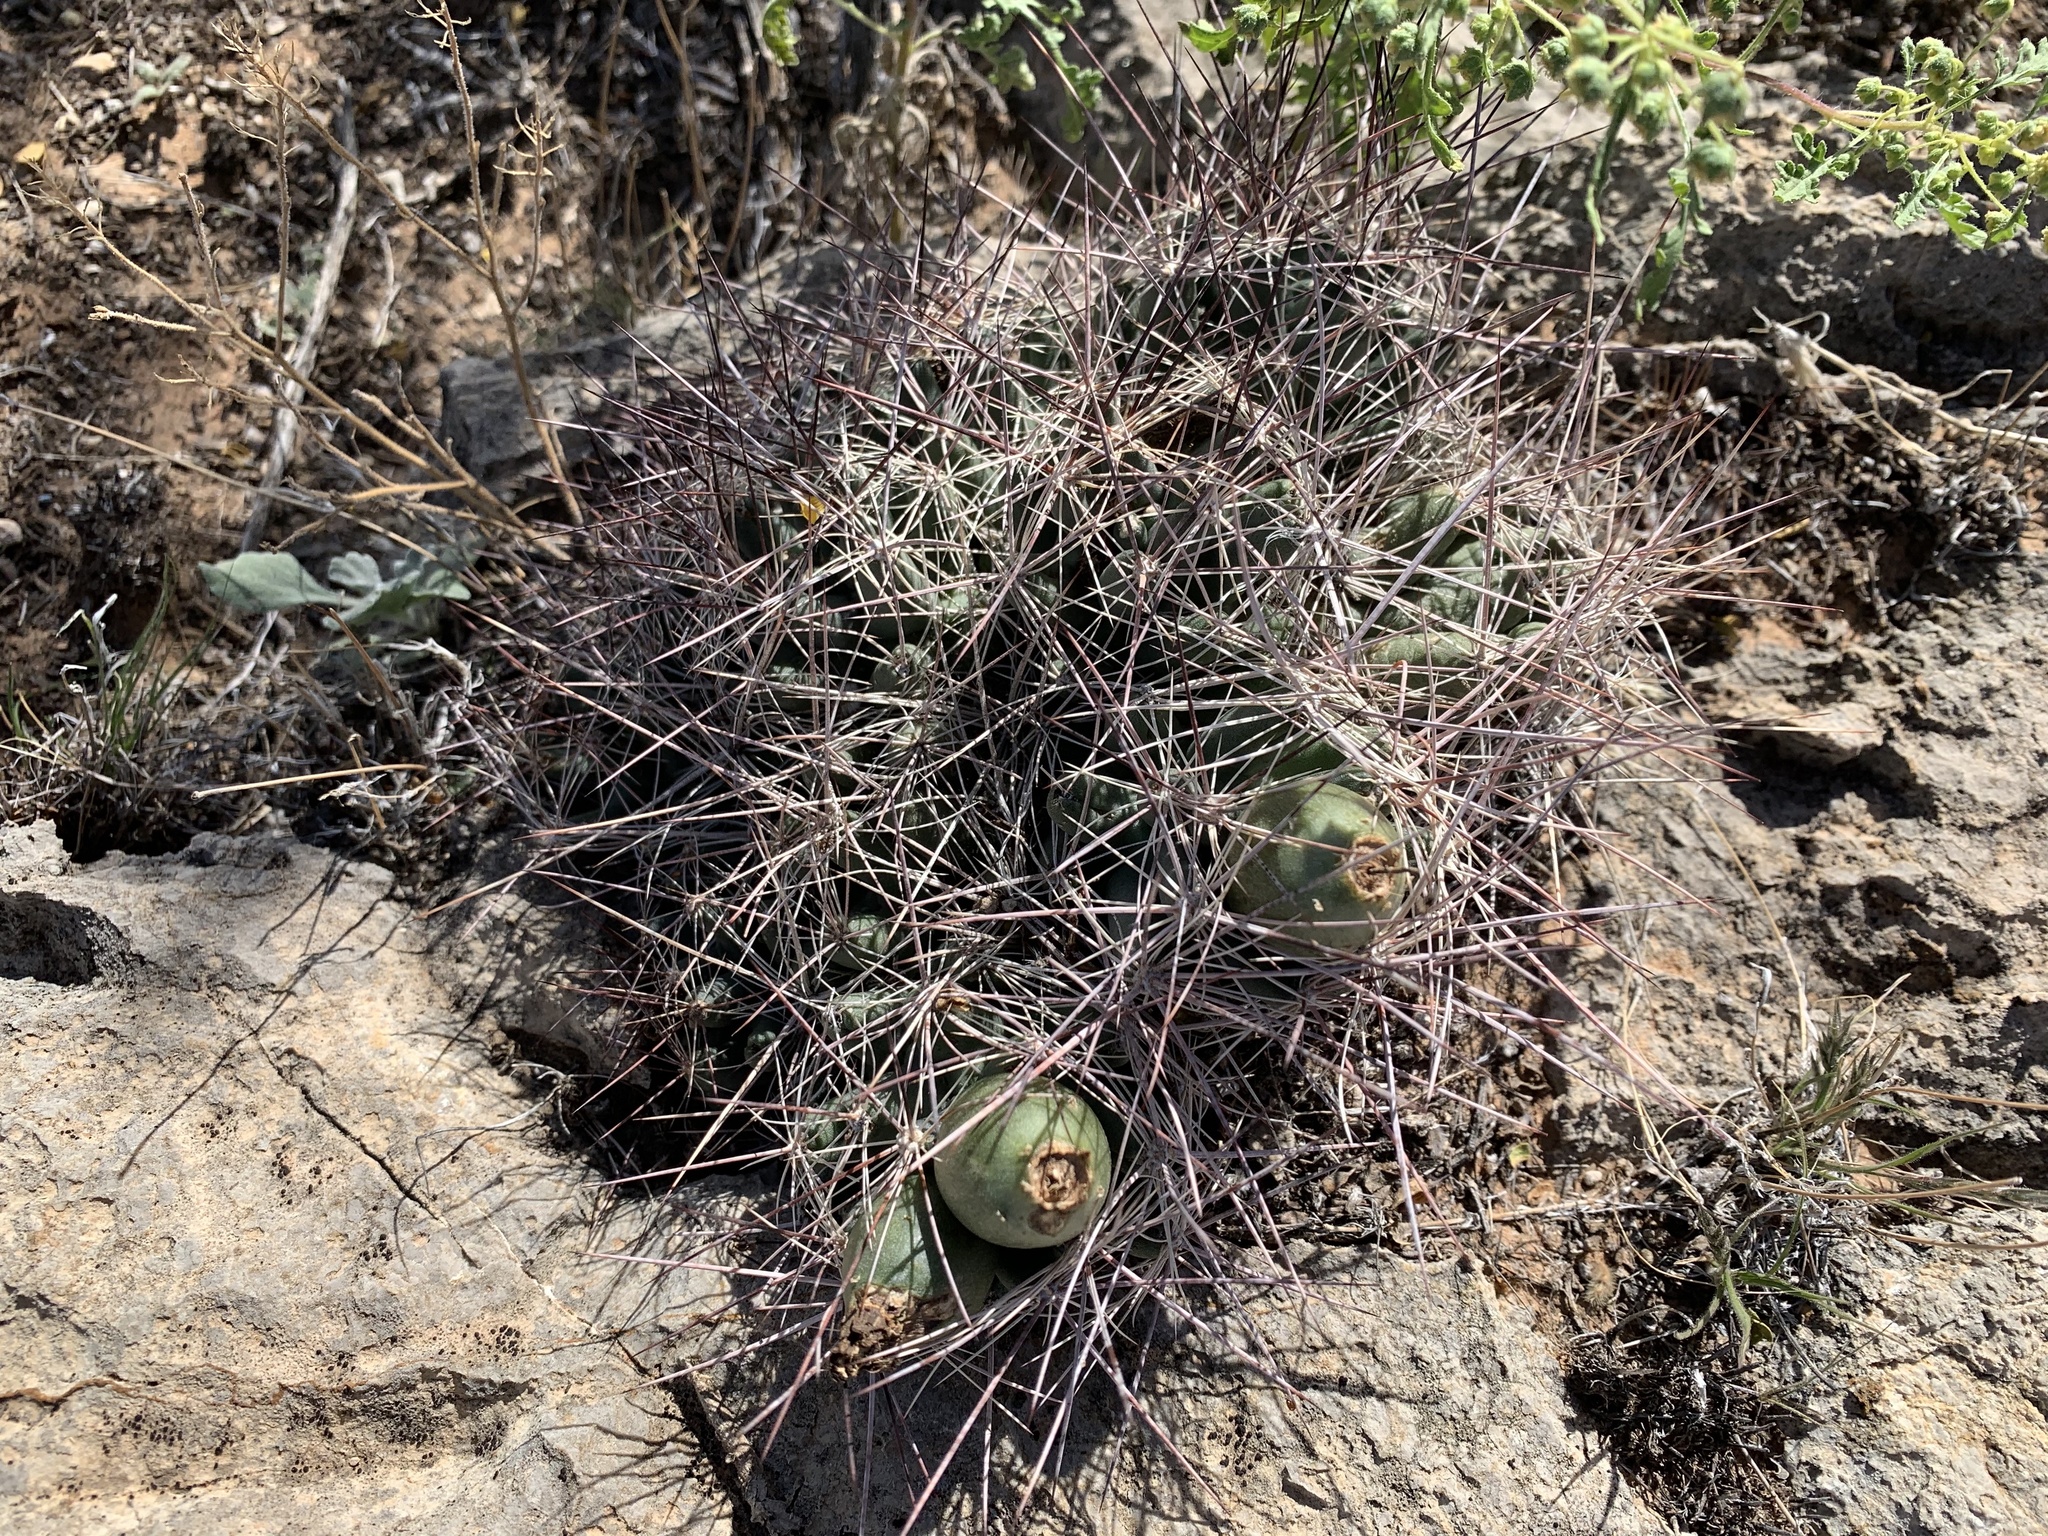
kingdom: Plantae
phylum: Tracheophyta
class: Magnoliopsida
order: Caryophyllales
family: Cactaceae
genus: Coryphantha
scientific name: Coryphantha macromeris
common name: Nipple beehive cactus
